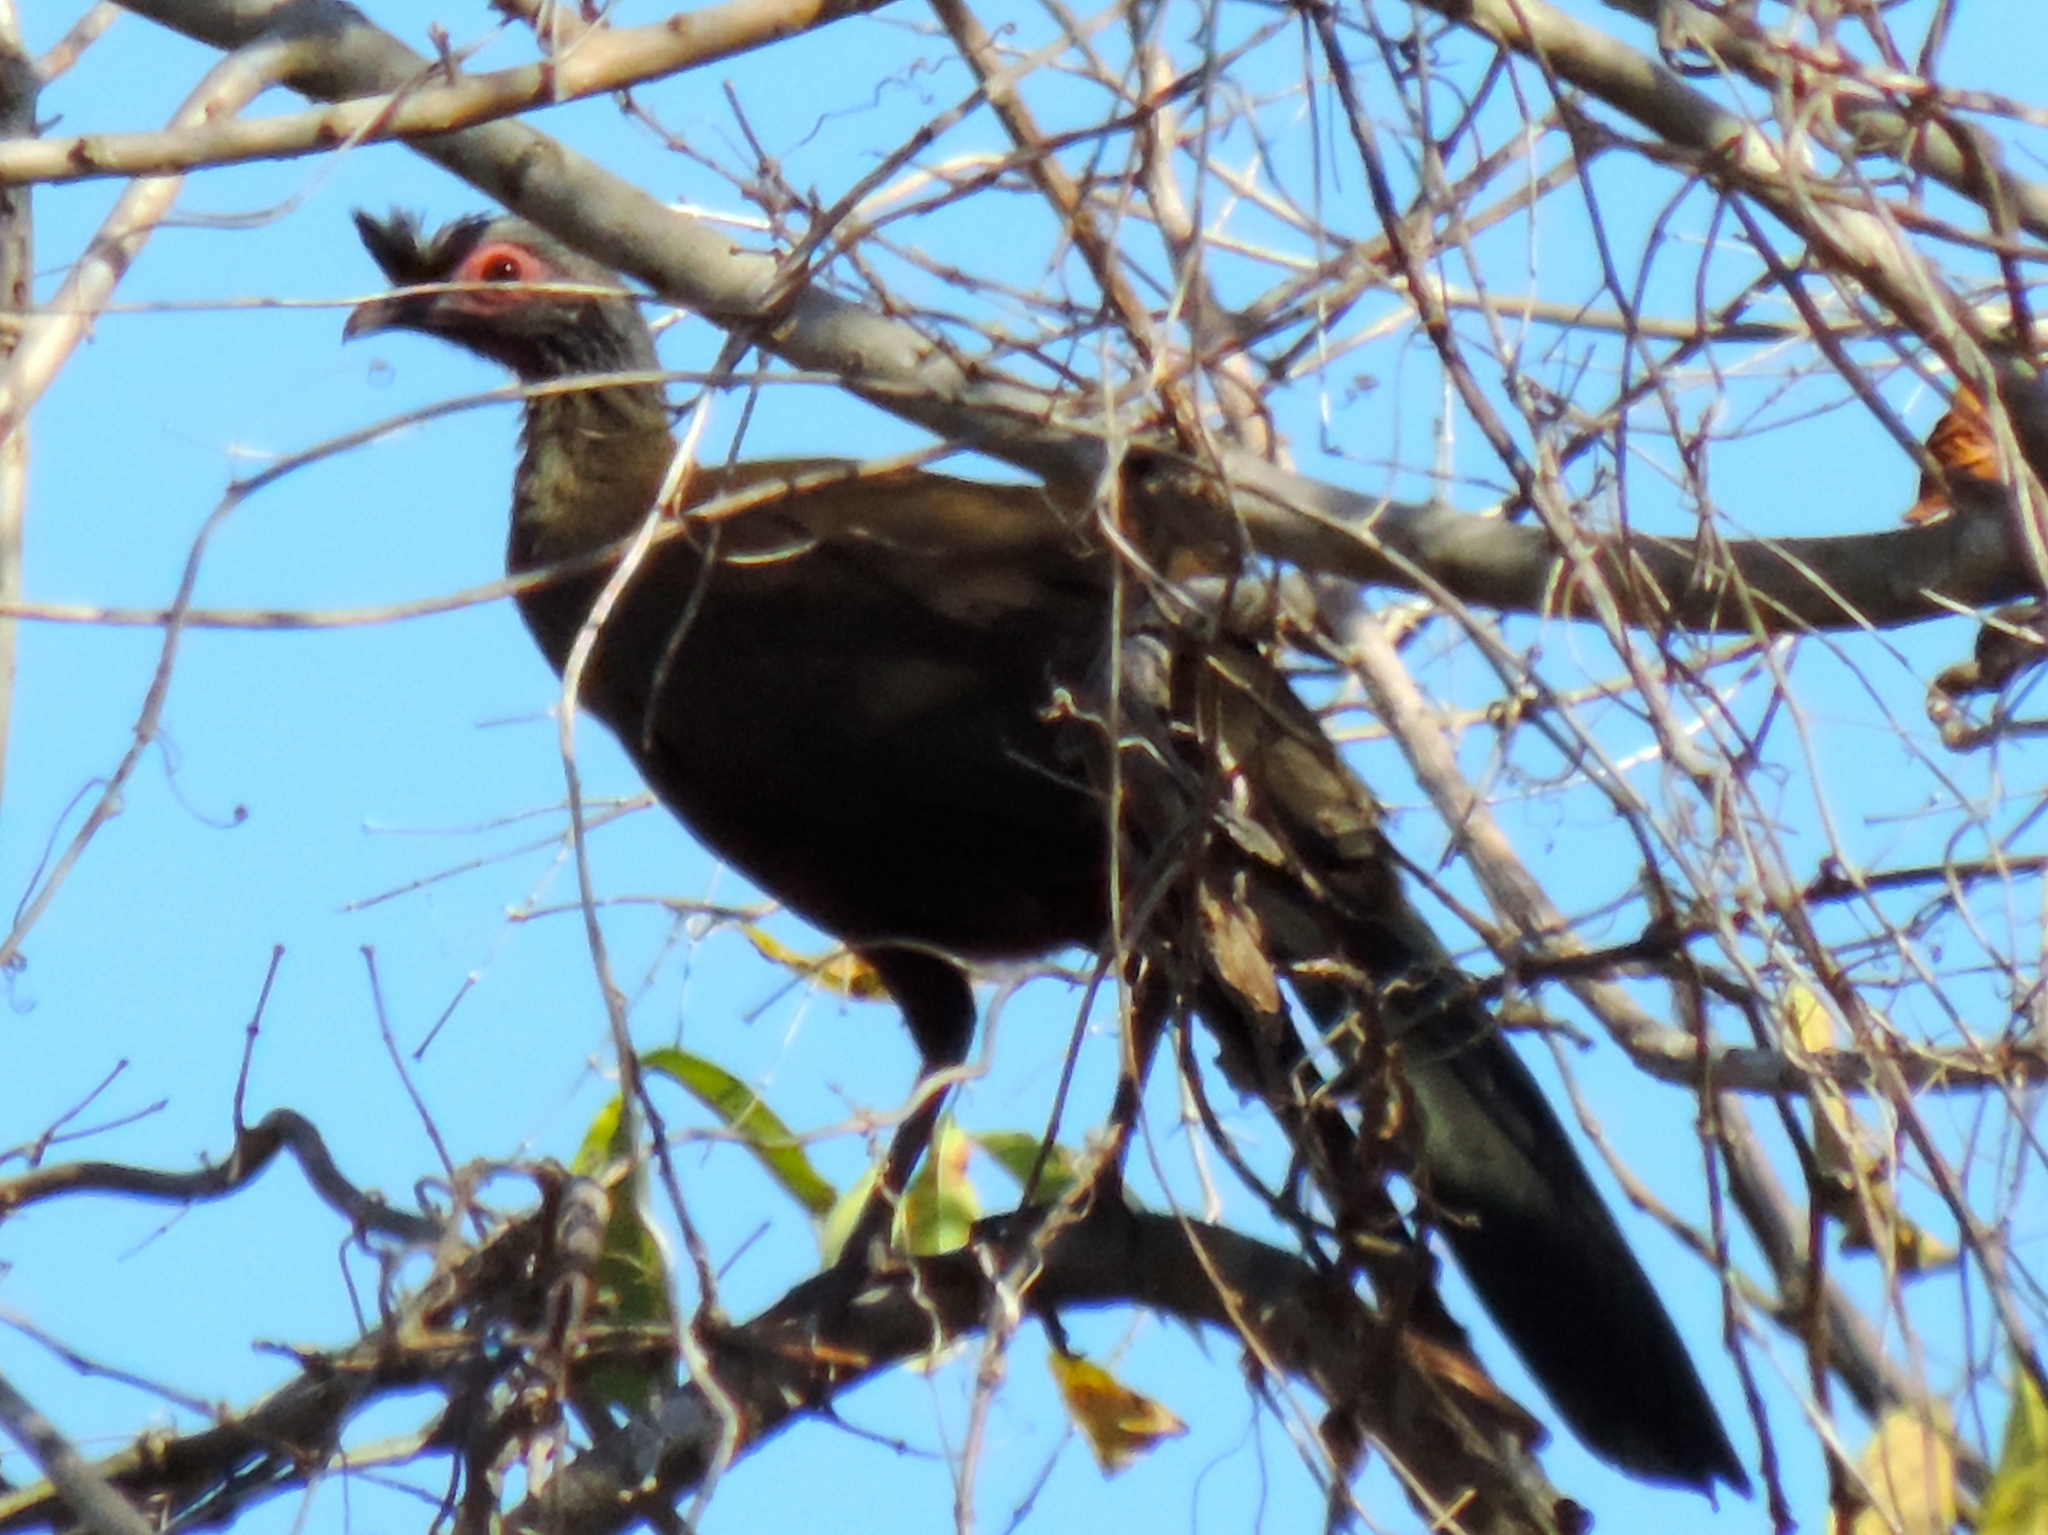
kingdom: Animalia
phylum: Chordata
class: Aves
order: Galliformes
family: Cracidae
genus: Ortalis
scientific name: Ortalis wagleri
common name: Rufous-bellied chachalaca
